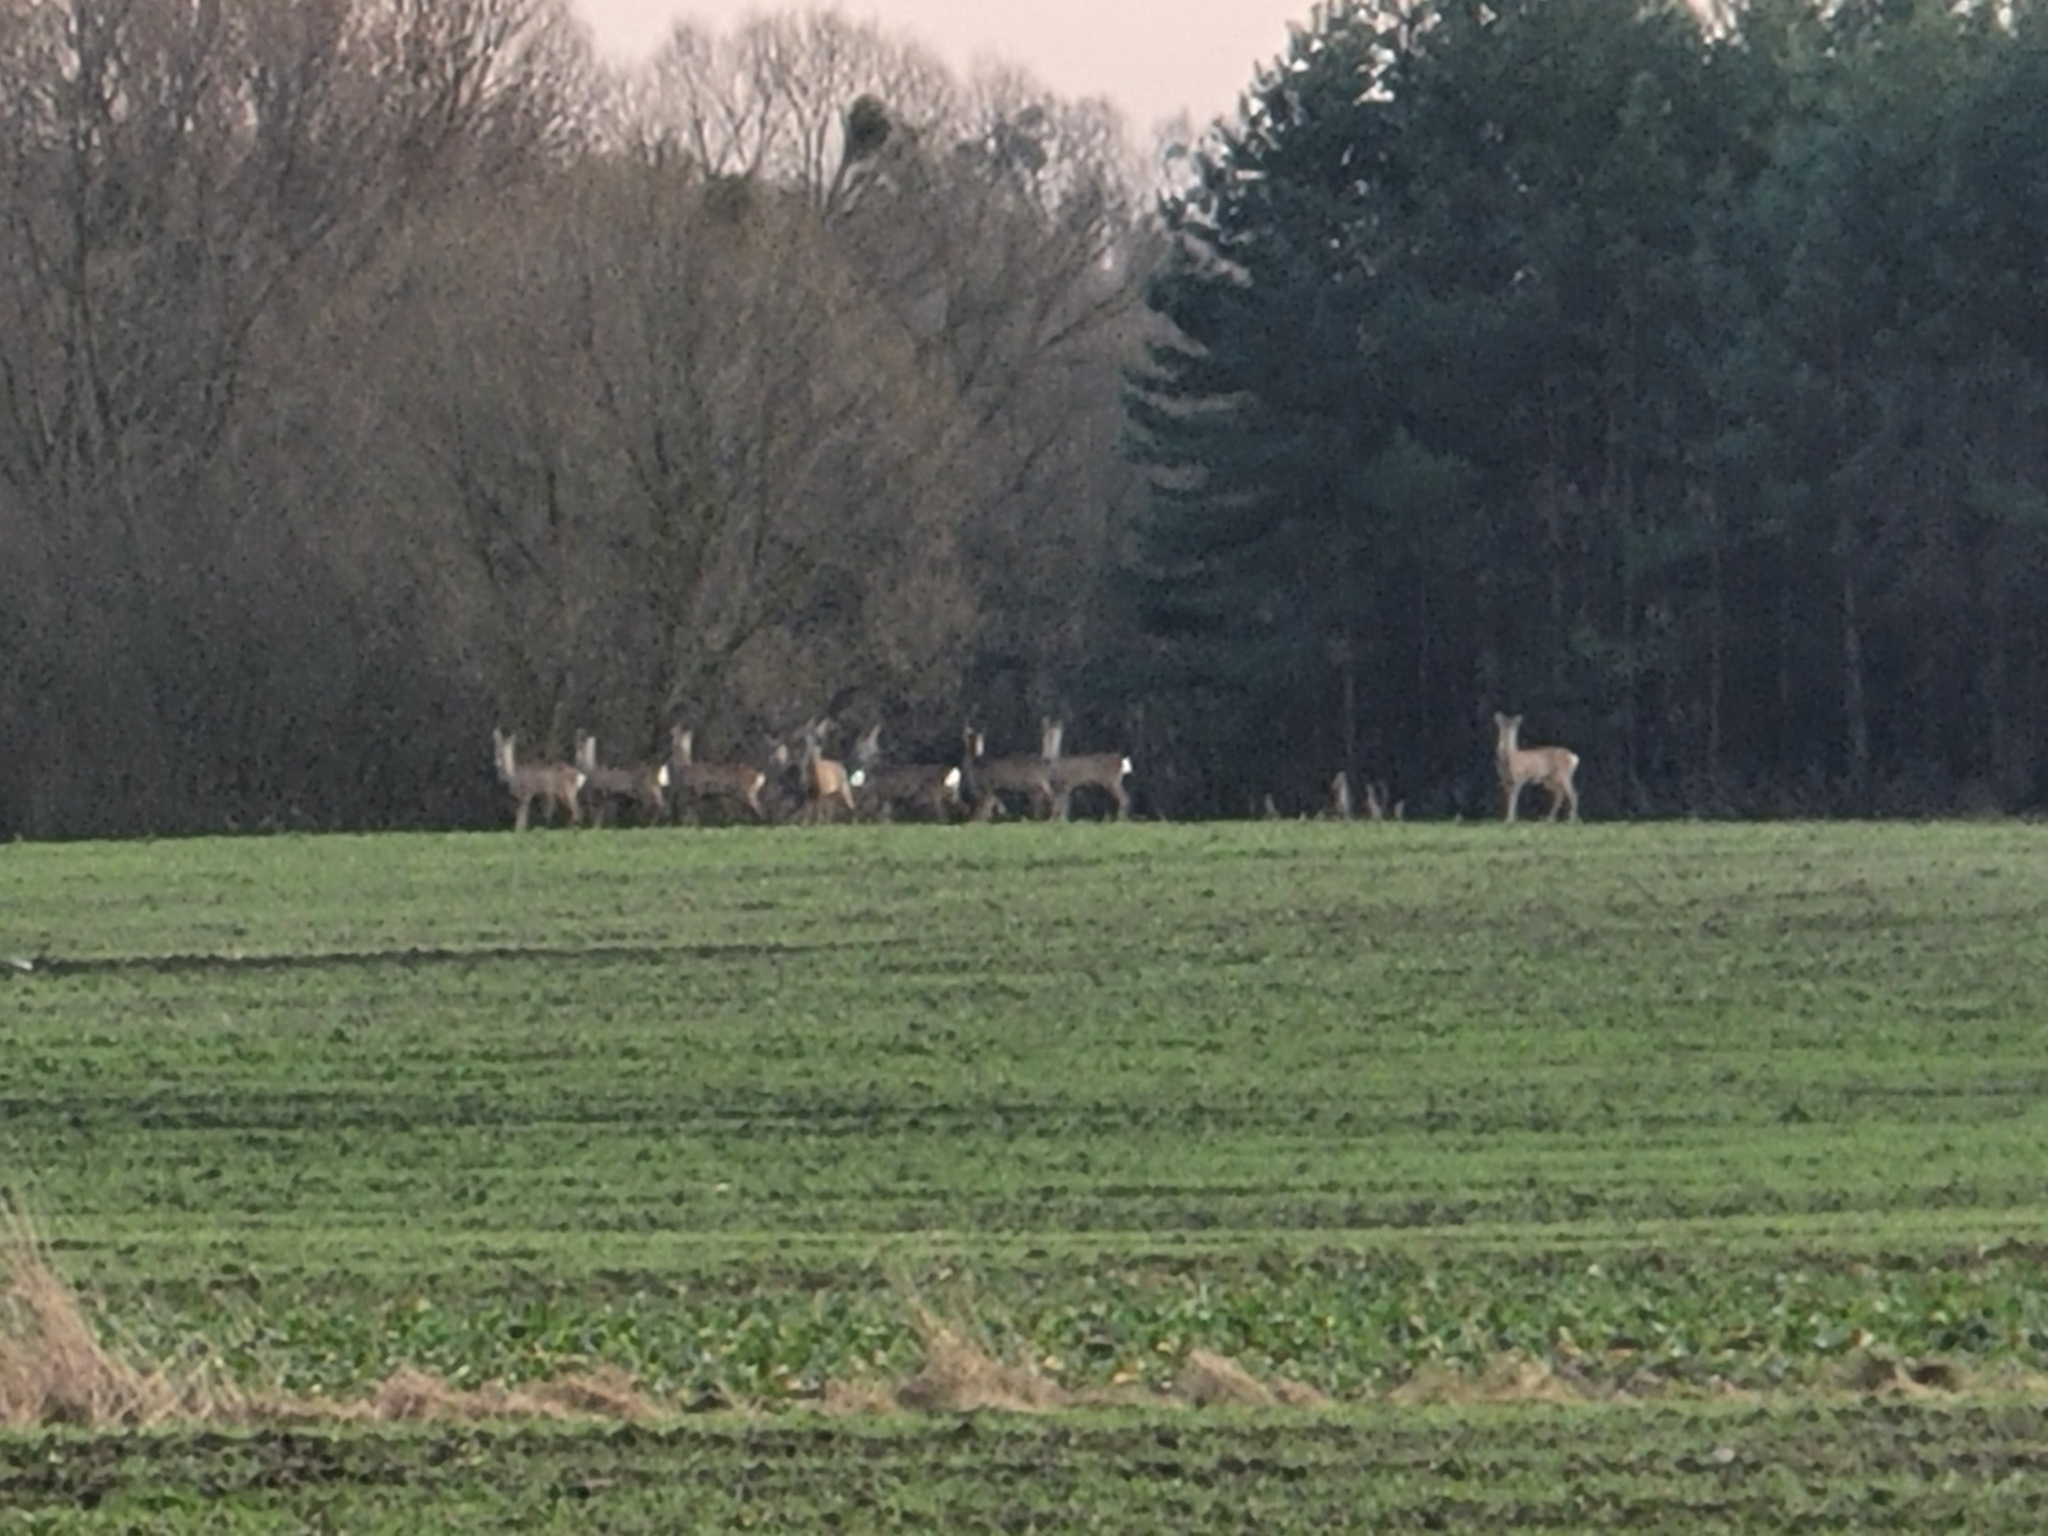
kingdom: Animalia
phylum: Chordata
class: Mammalia
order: Artiodactyla
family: Cervidae
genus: Capreolus
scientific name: Capreolus capreolus
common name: Western roe deer
